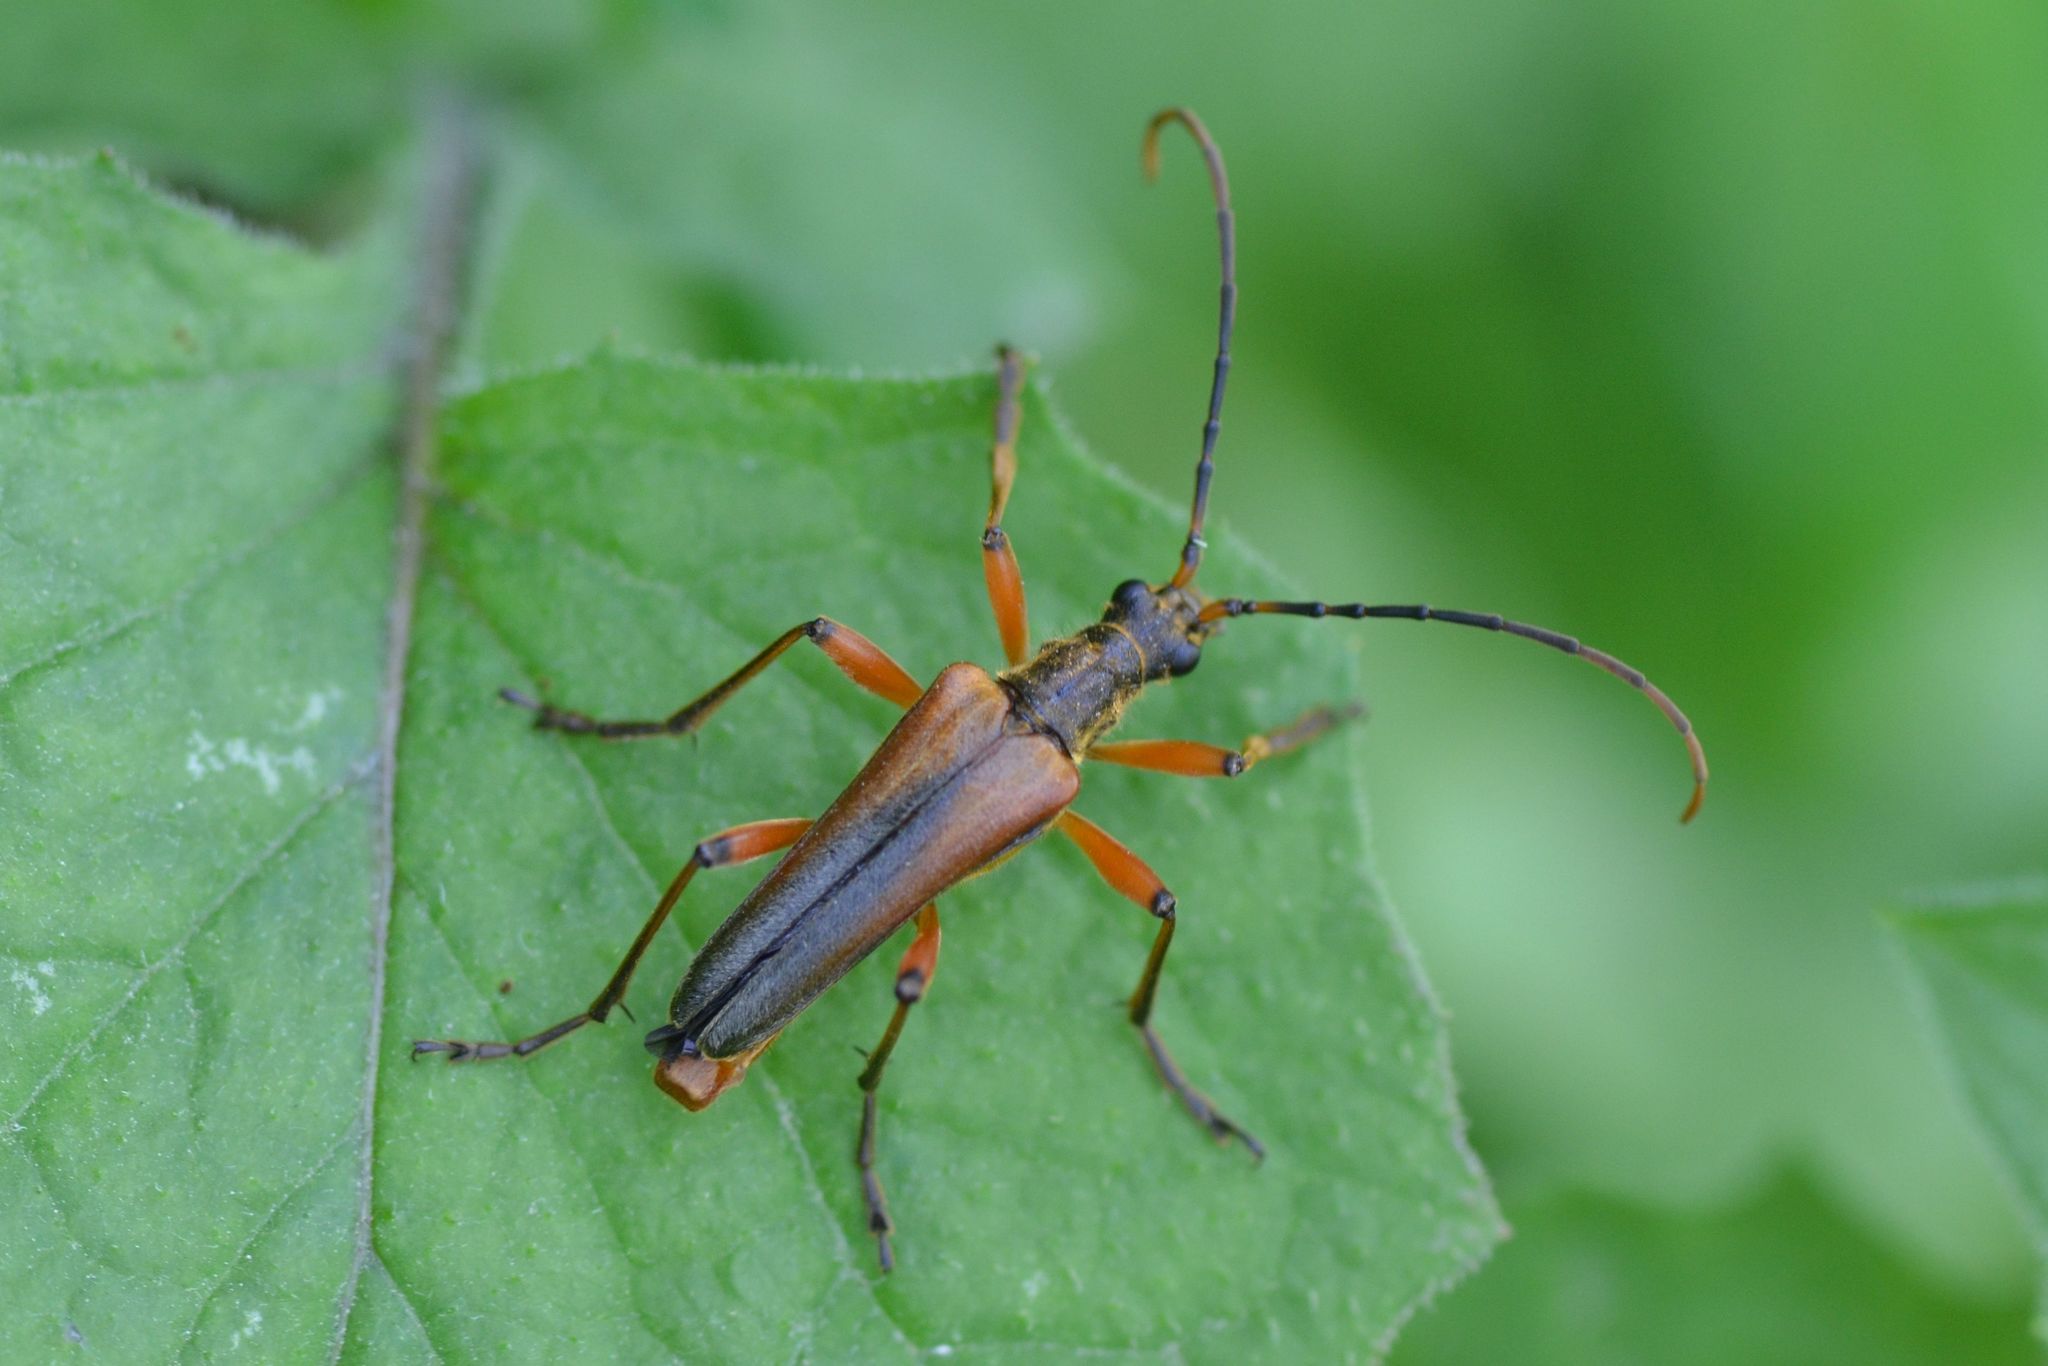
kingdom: Animalia
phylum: Arthropoda
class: Insecta
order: Coleoptera
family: Cerambycidae
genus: Stenocorus
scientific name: Stenocorus meridianus
